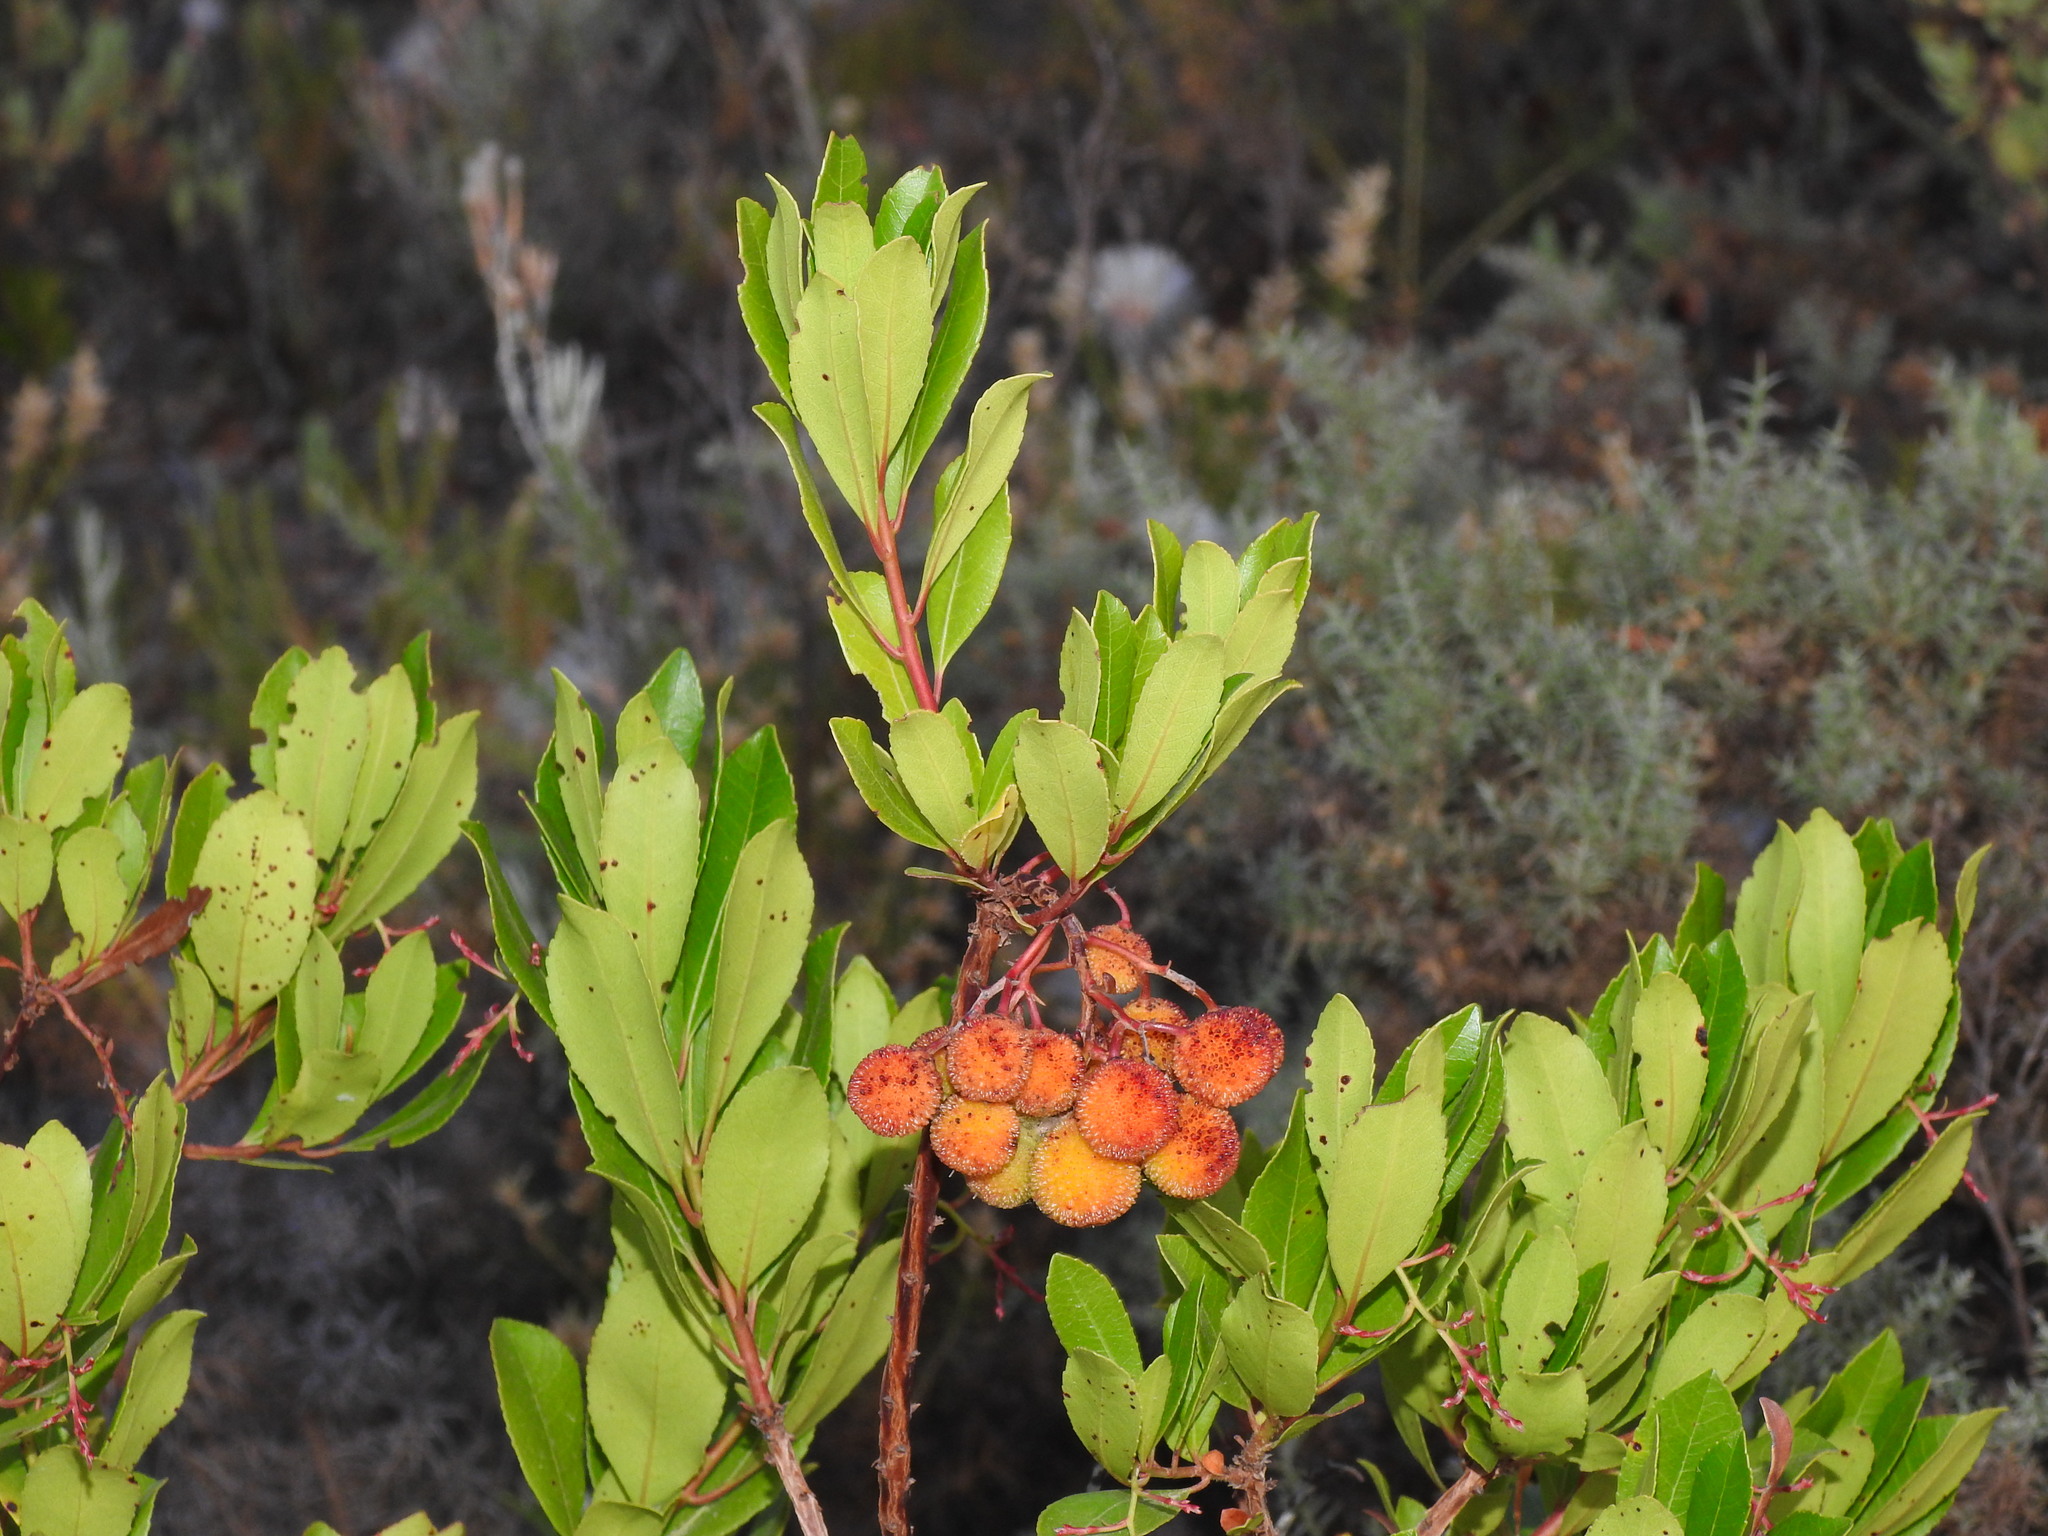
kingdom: Plantae
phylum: Tracheophyta
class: Magnoliopsida
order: Ericales
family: Ericaceae
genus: Arbutus
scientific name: Arbutus unedo
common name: Strawberry-tree
